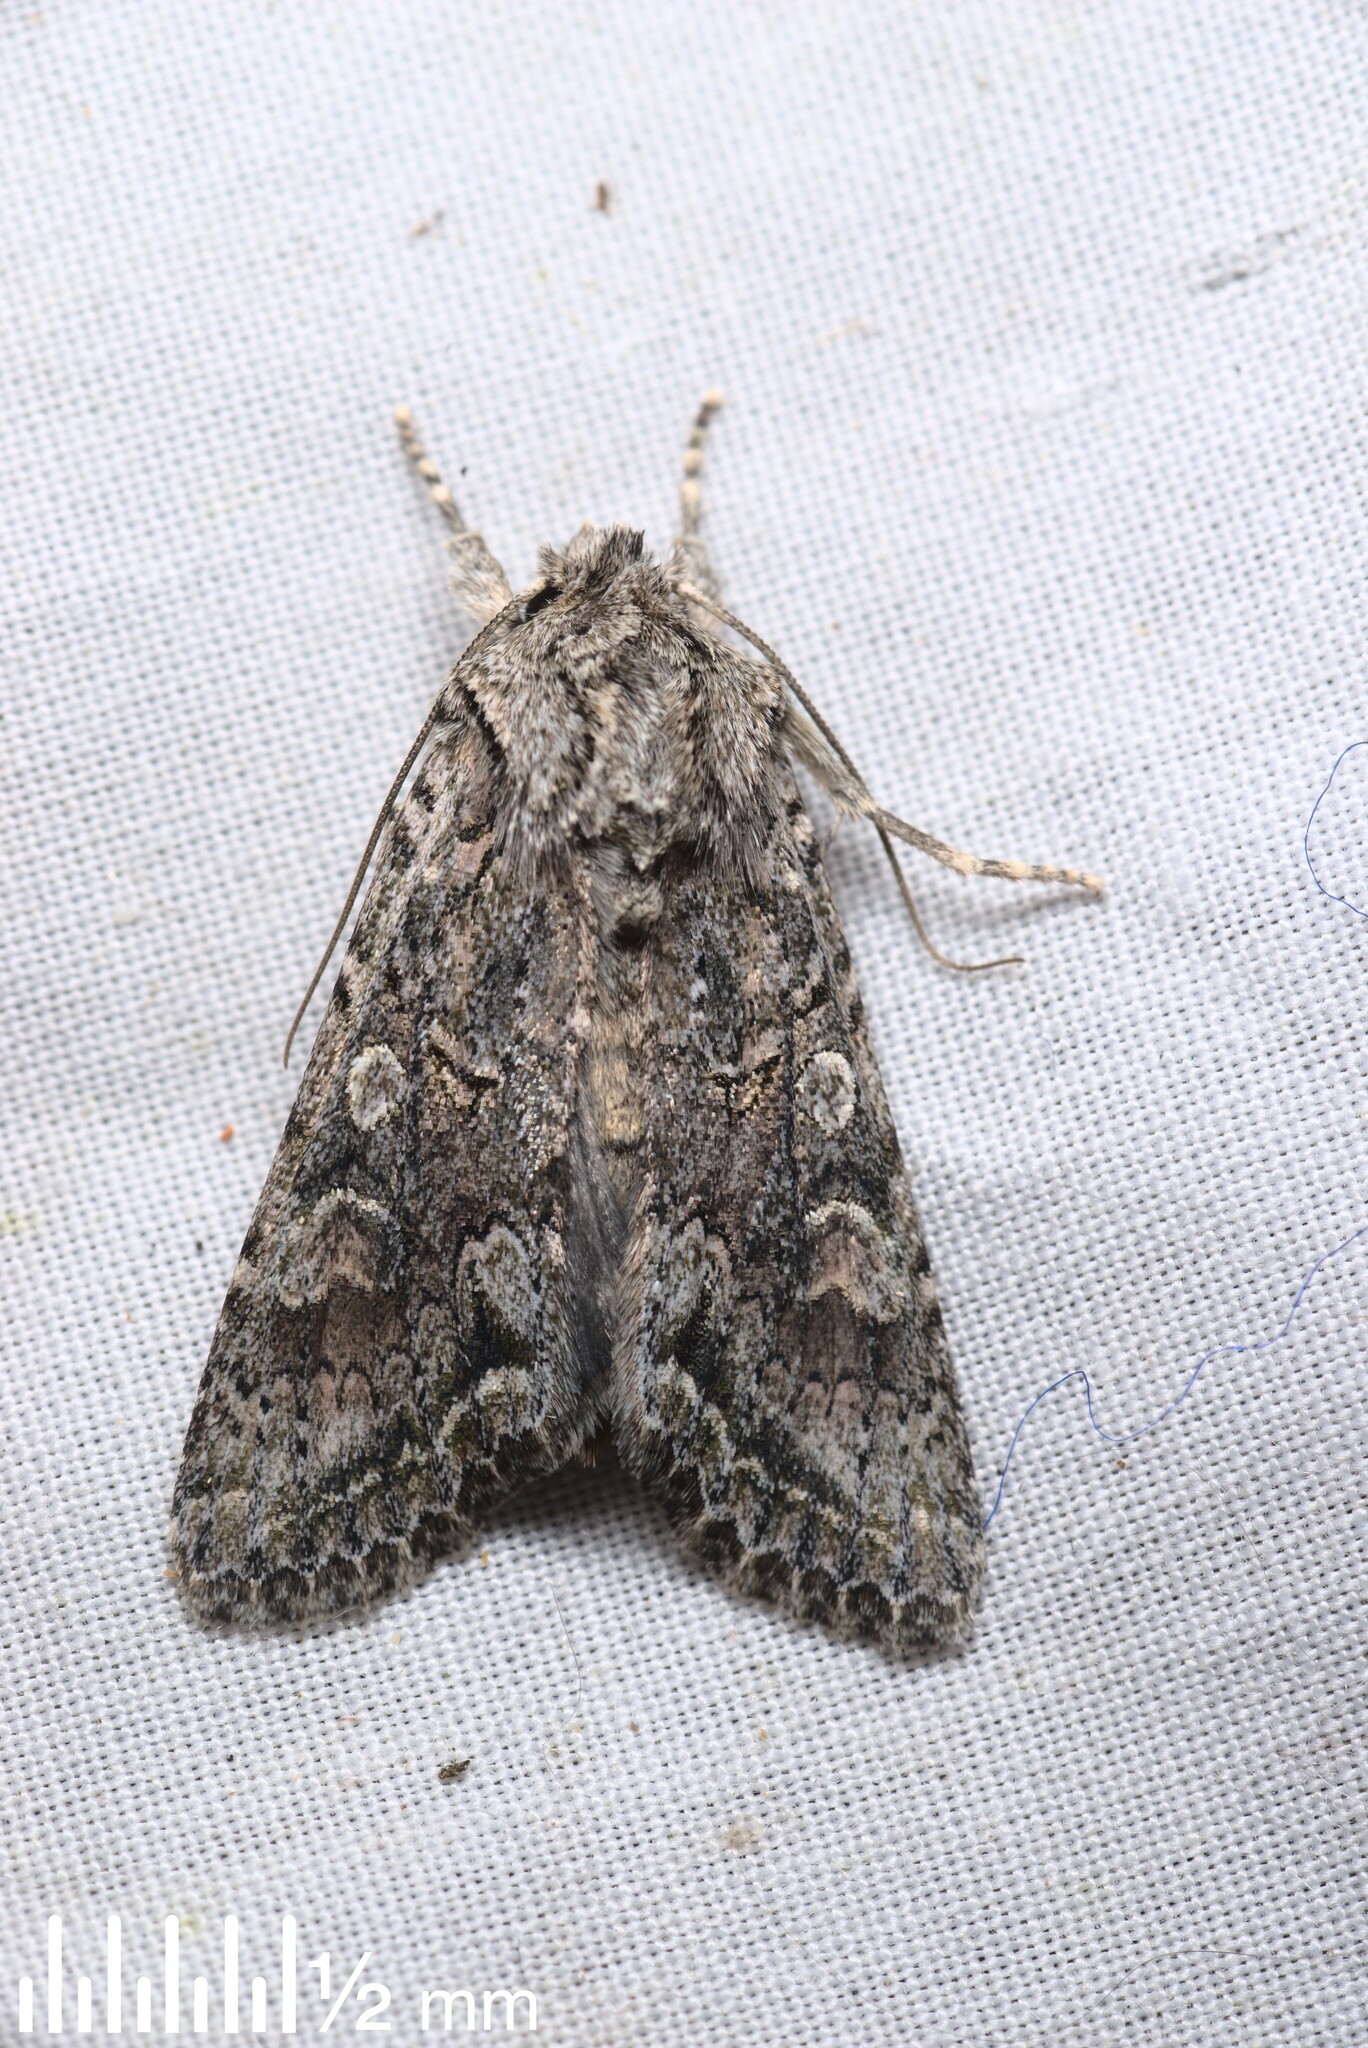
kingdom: Animalia
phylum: Arthropoda
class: Insecta
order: Lepidoptera
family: Noctuidae
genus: Ichneutica
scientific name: Ichneutica mutans
